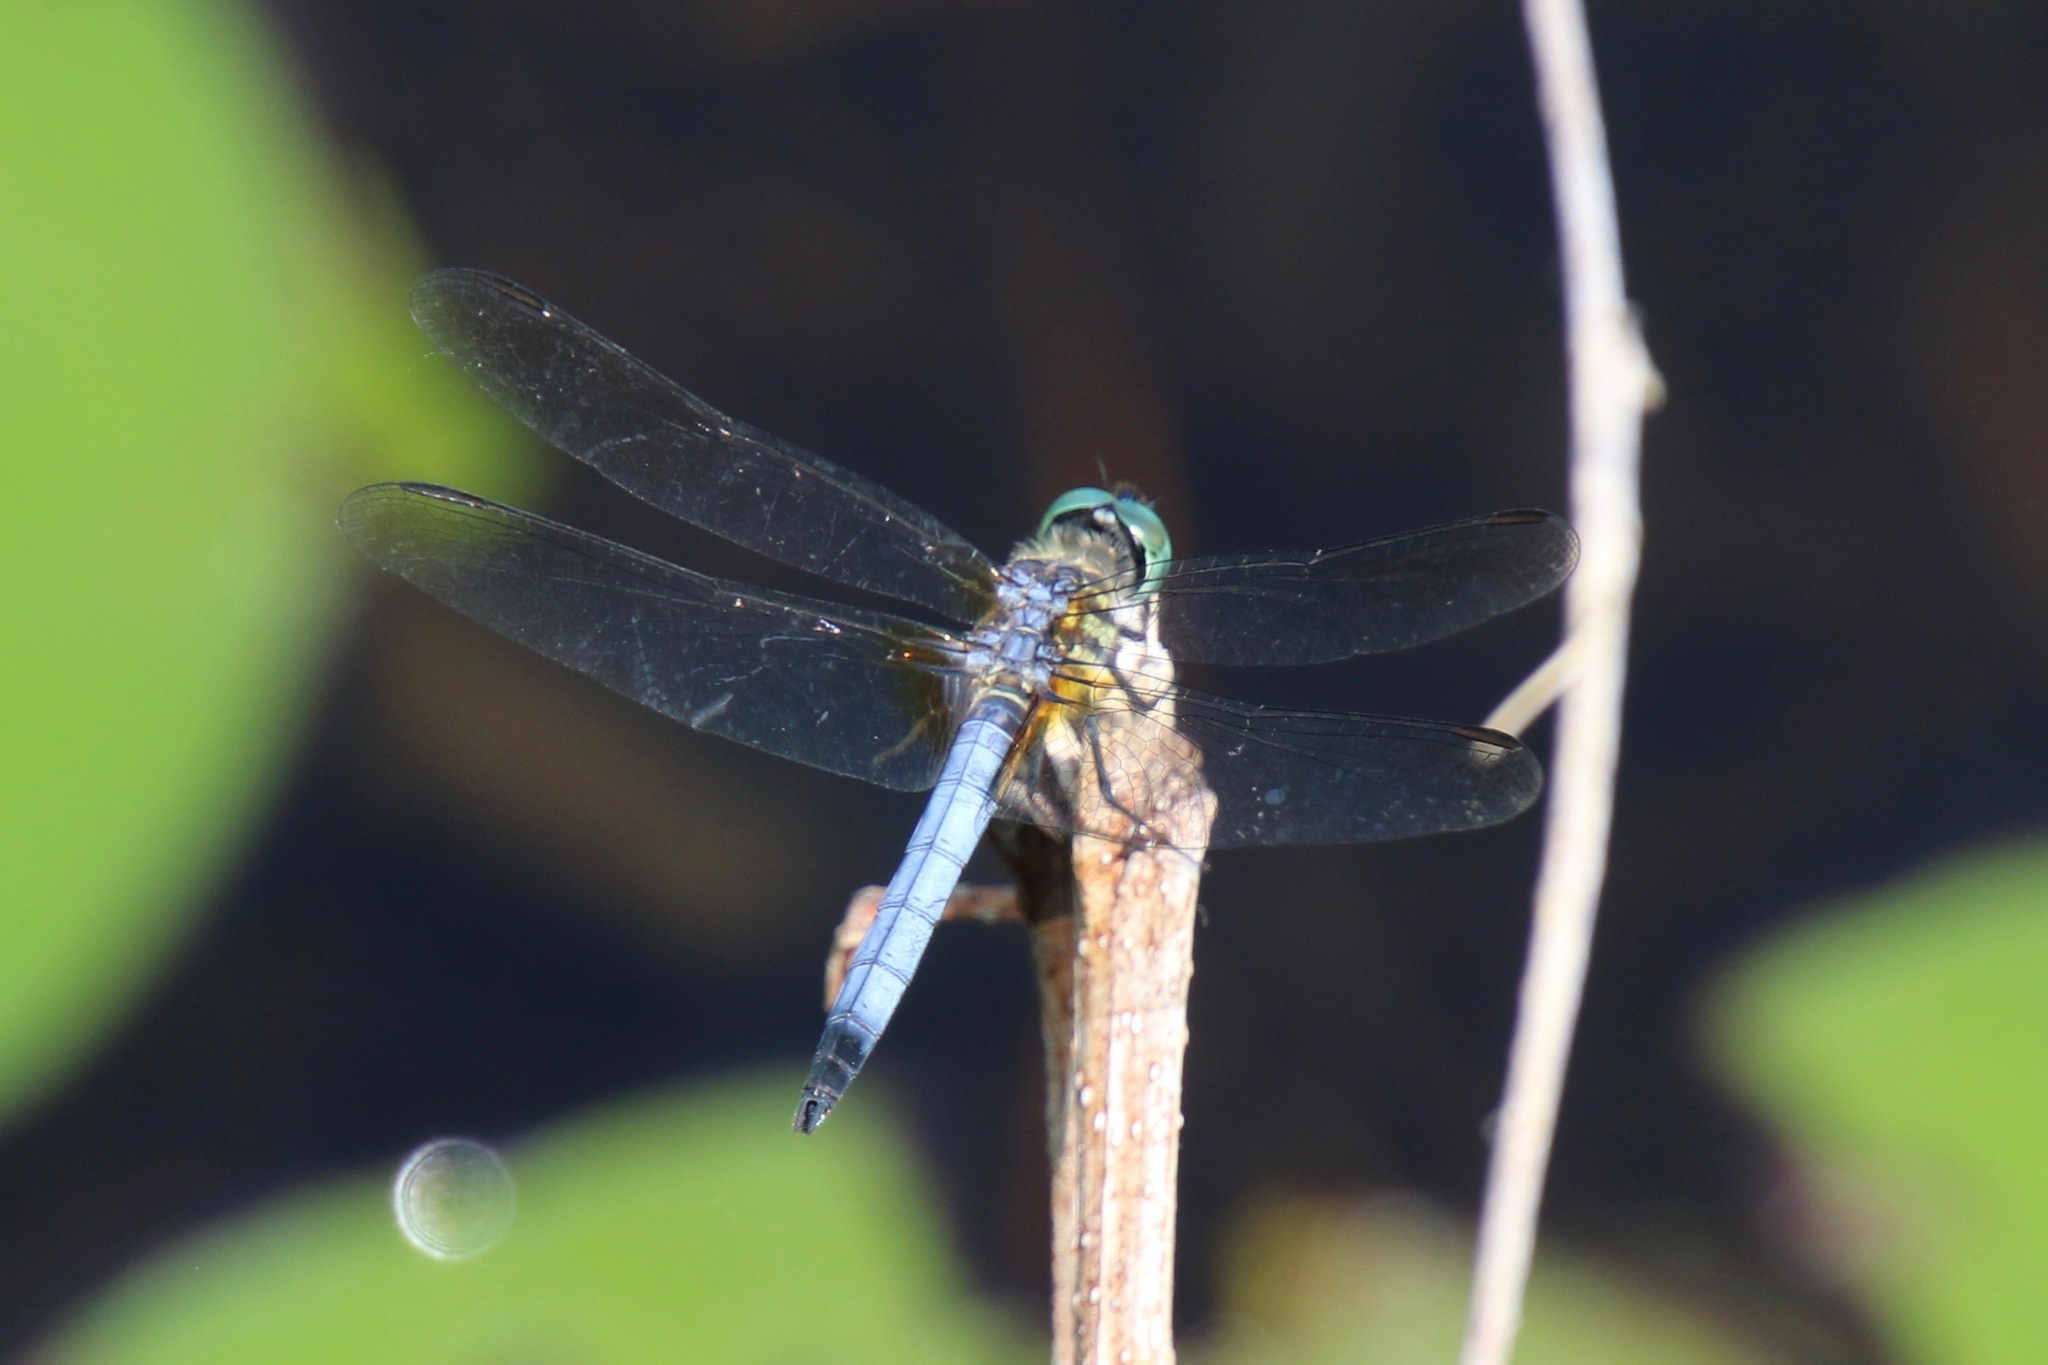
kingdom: Animalia
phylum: Arthropoda
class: Insecta
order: Odonata
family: Libellulidae
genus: Pachydiplax
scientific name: Pachydiplax longipennis
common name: Blue dasher
